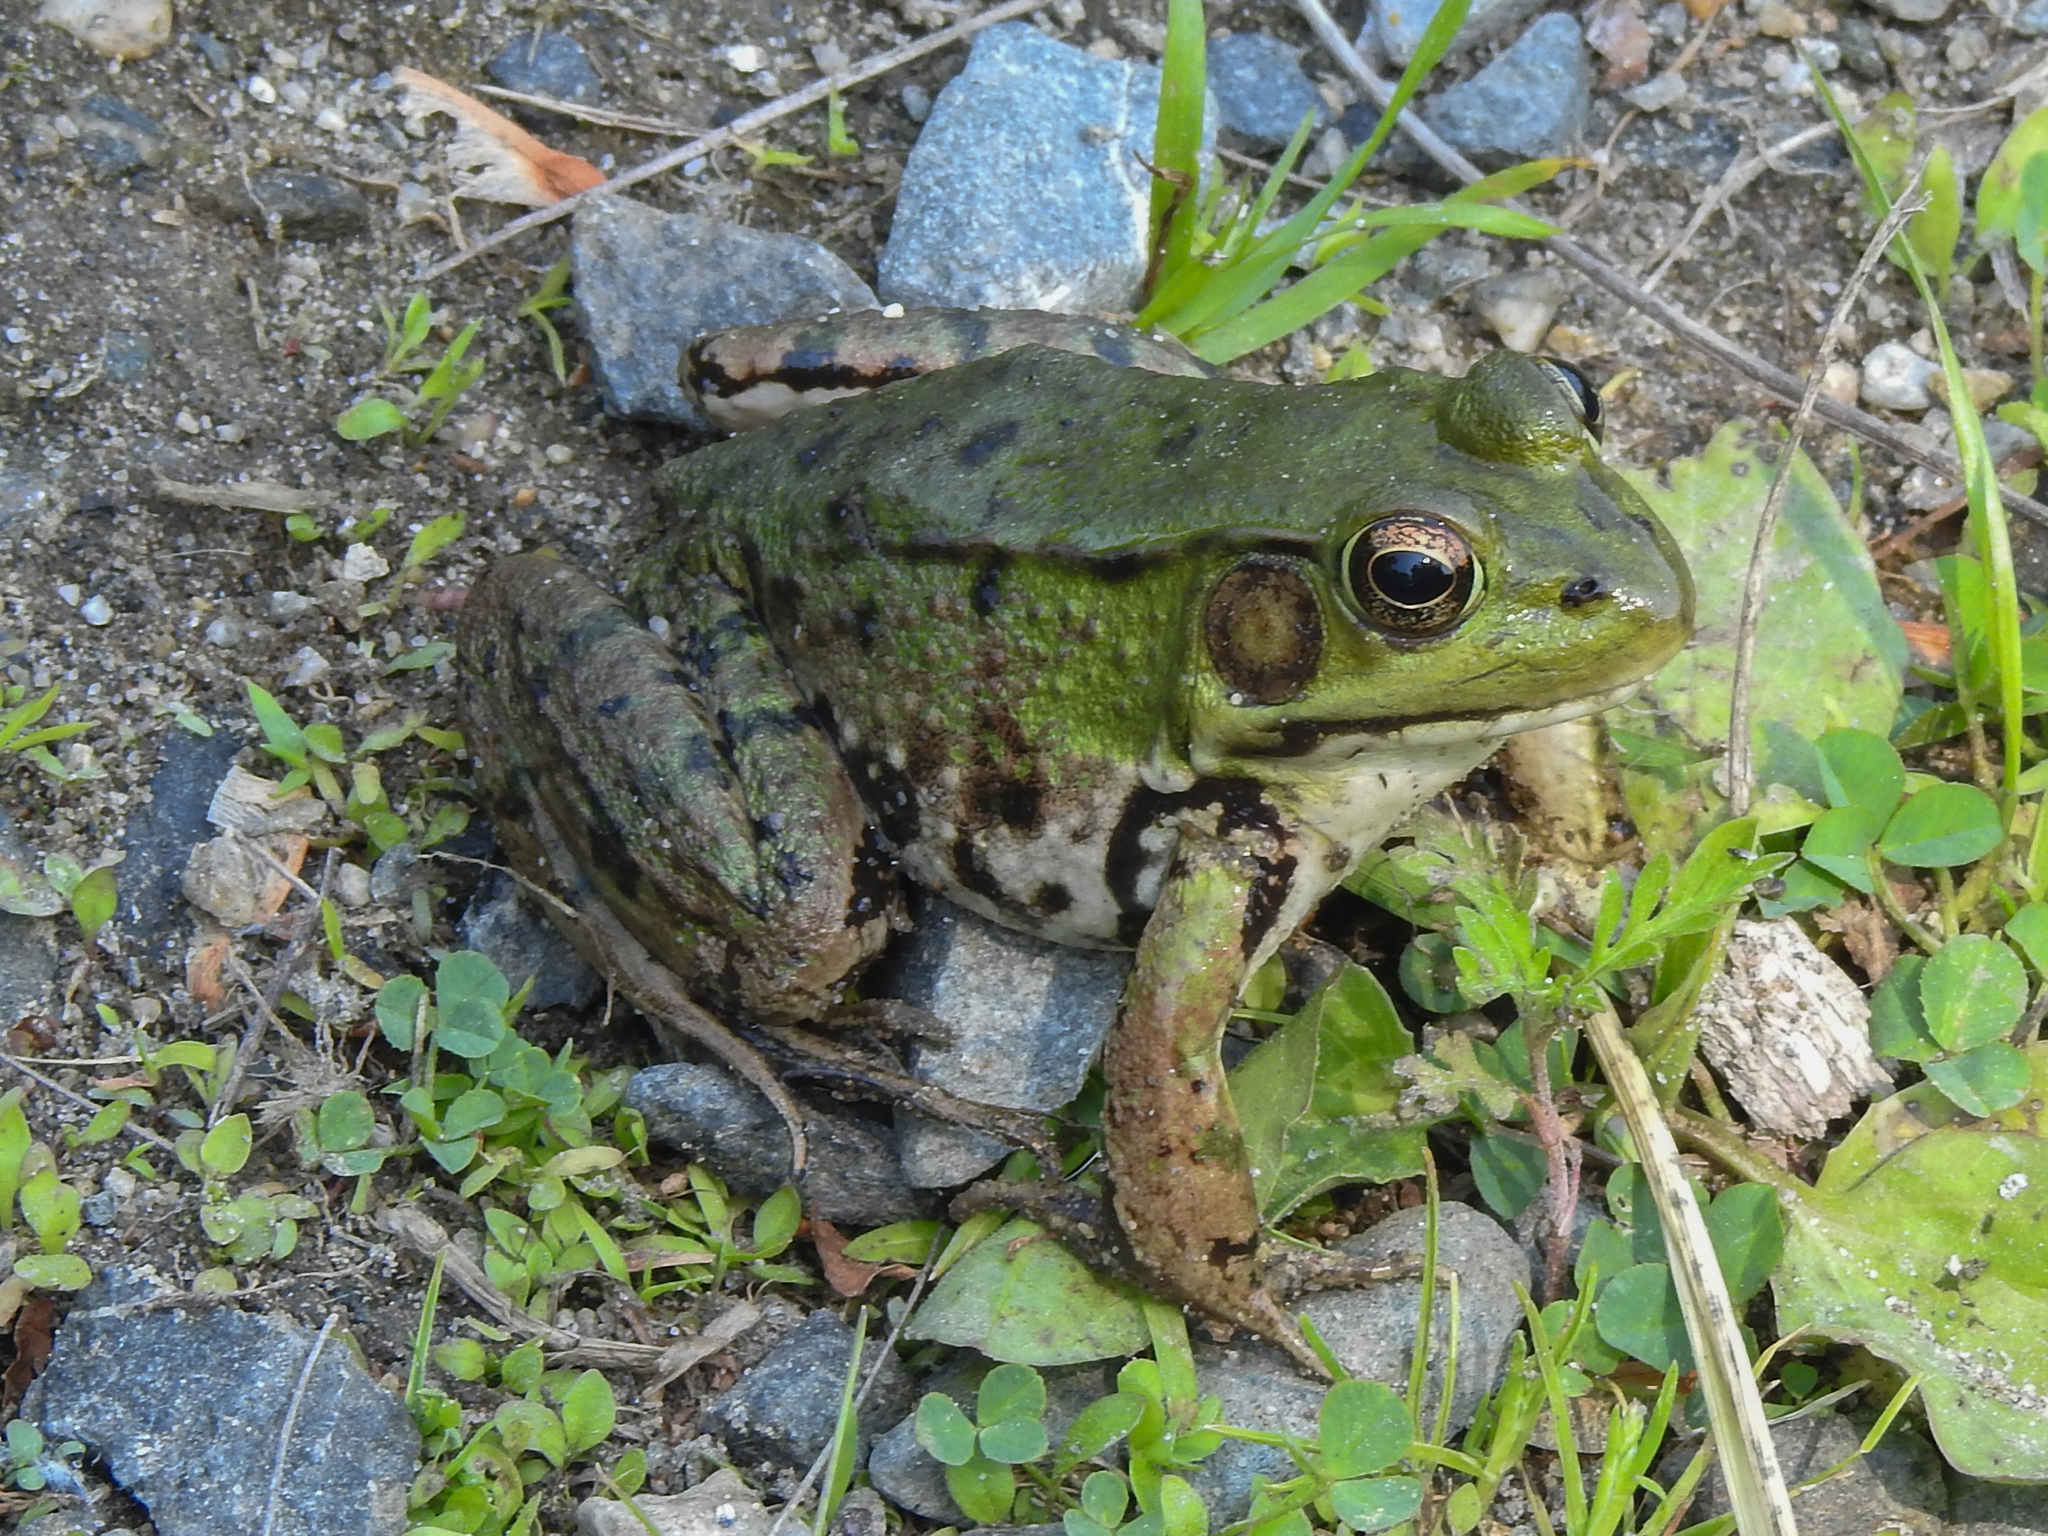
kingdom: Animalia
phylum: Chordata
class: Amphibia
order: Anura
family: Ranidae
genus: Lithobates
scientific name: Lithobates clamitans
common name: Green frog
